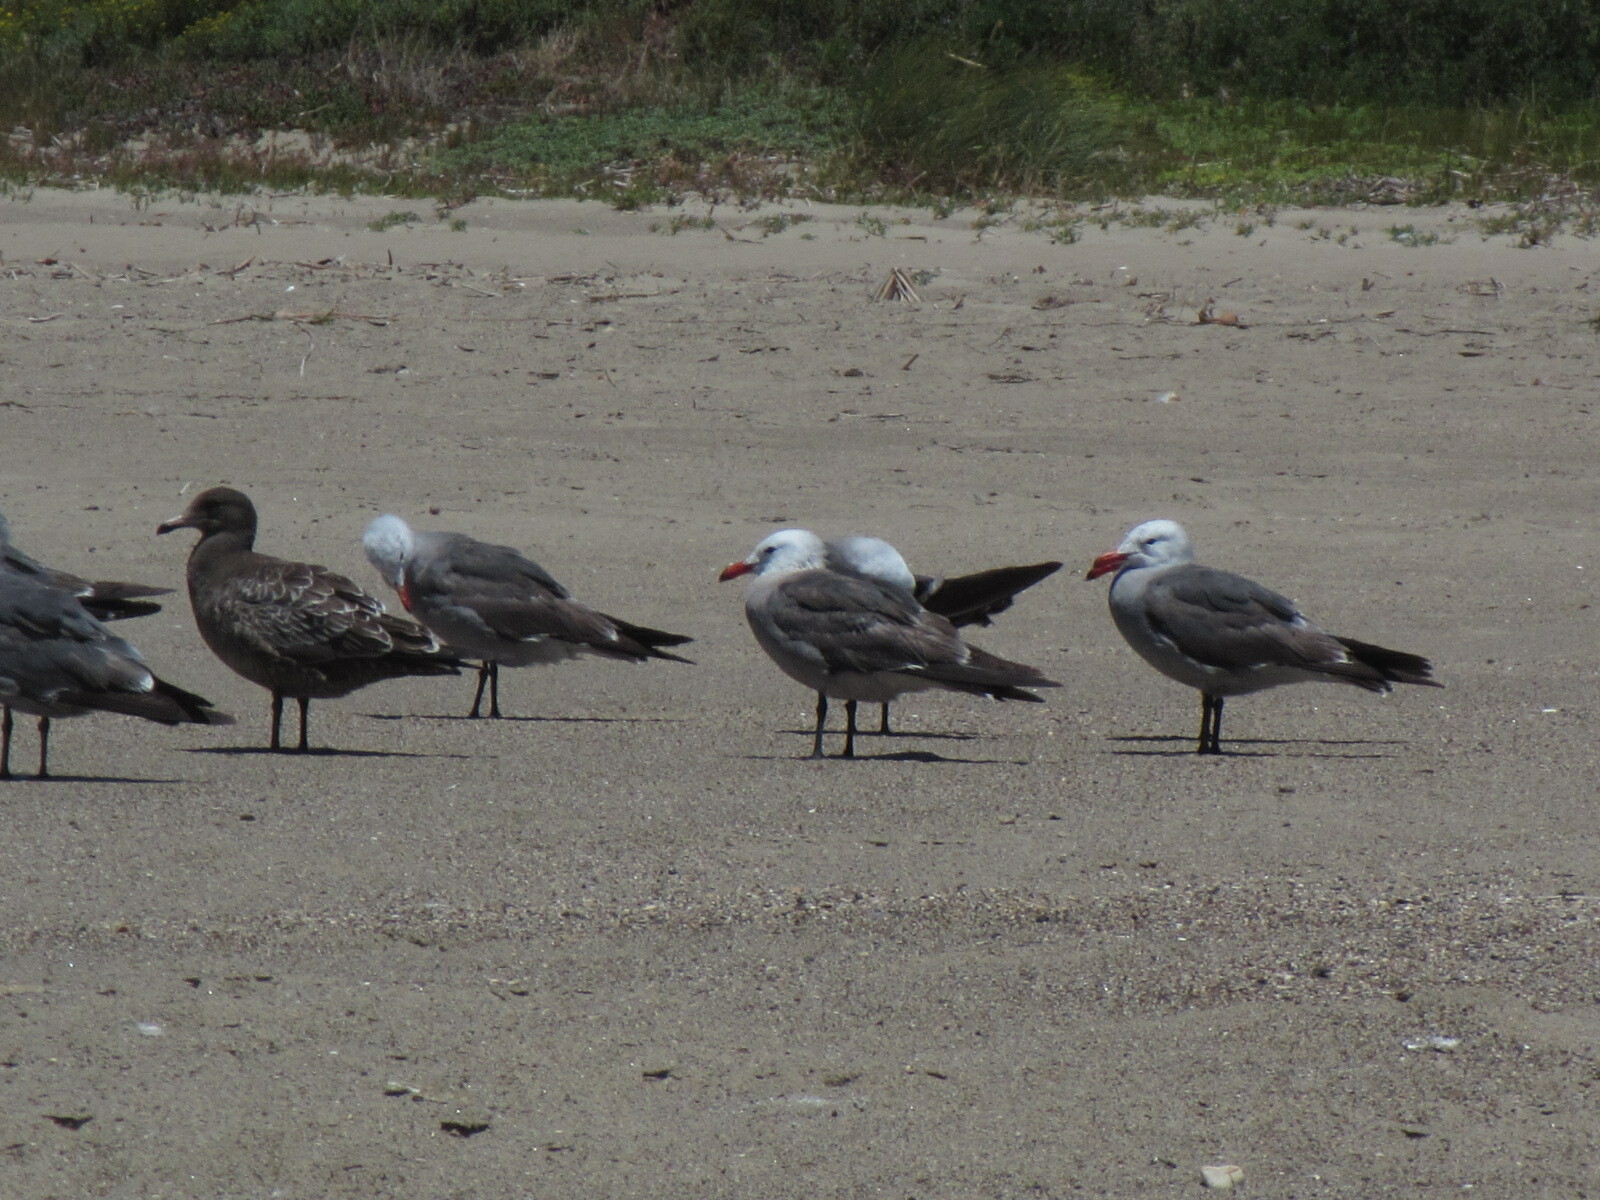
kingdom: Animalia
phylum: Chordata
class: Aves
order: Charadriiformes
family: Laridae
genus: Larus
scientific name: Larus heermanni
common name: Heermann's gull
